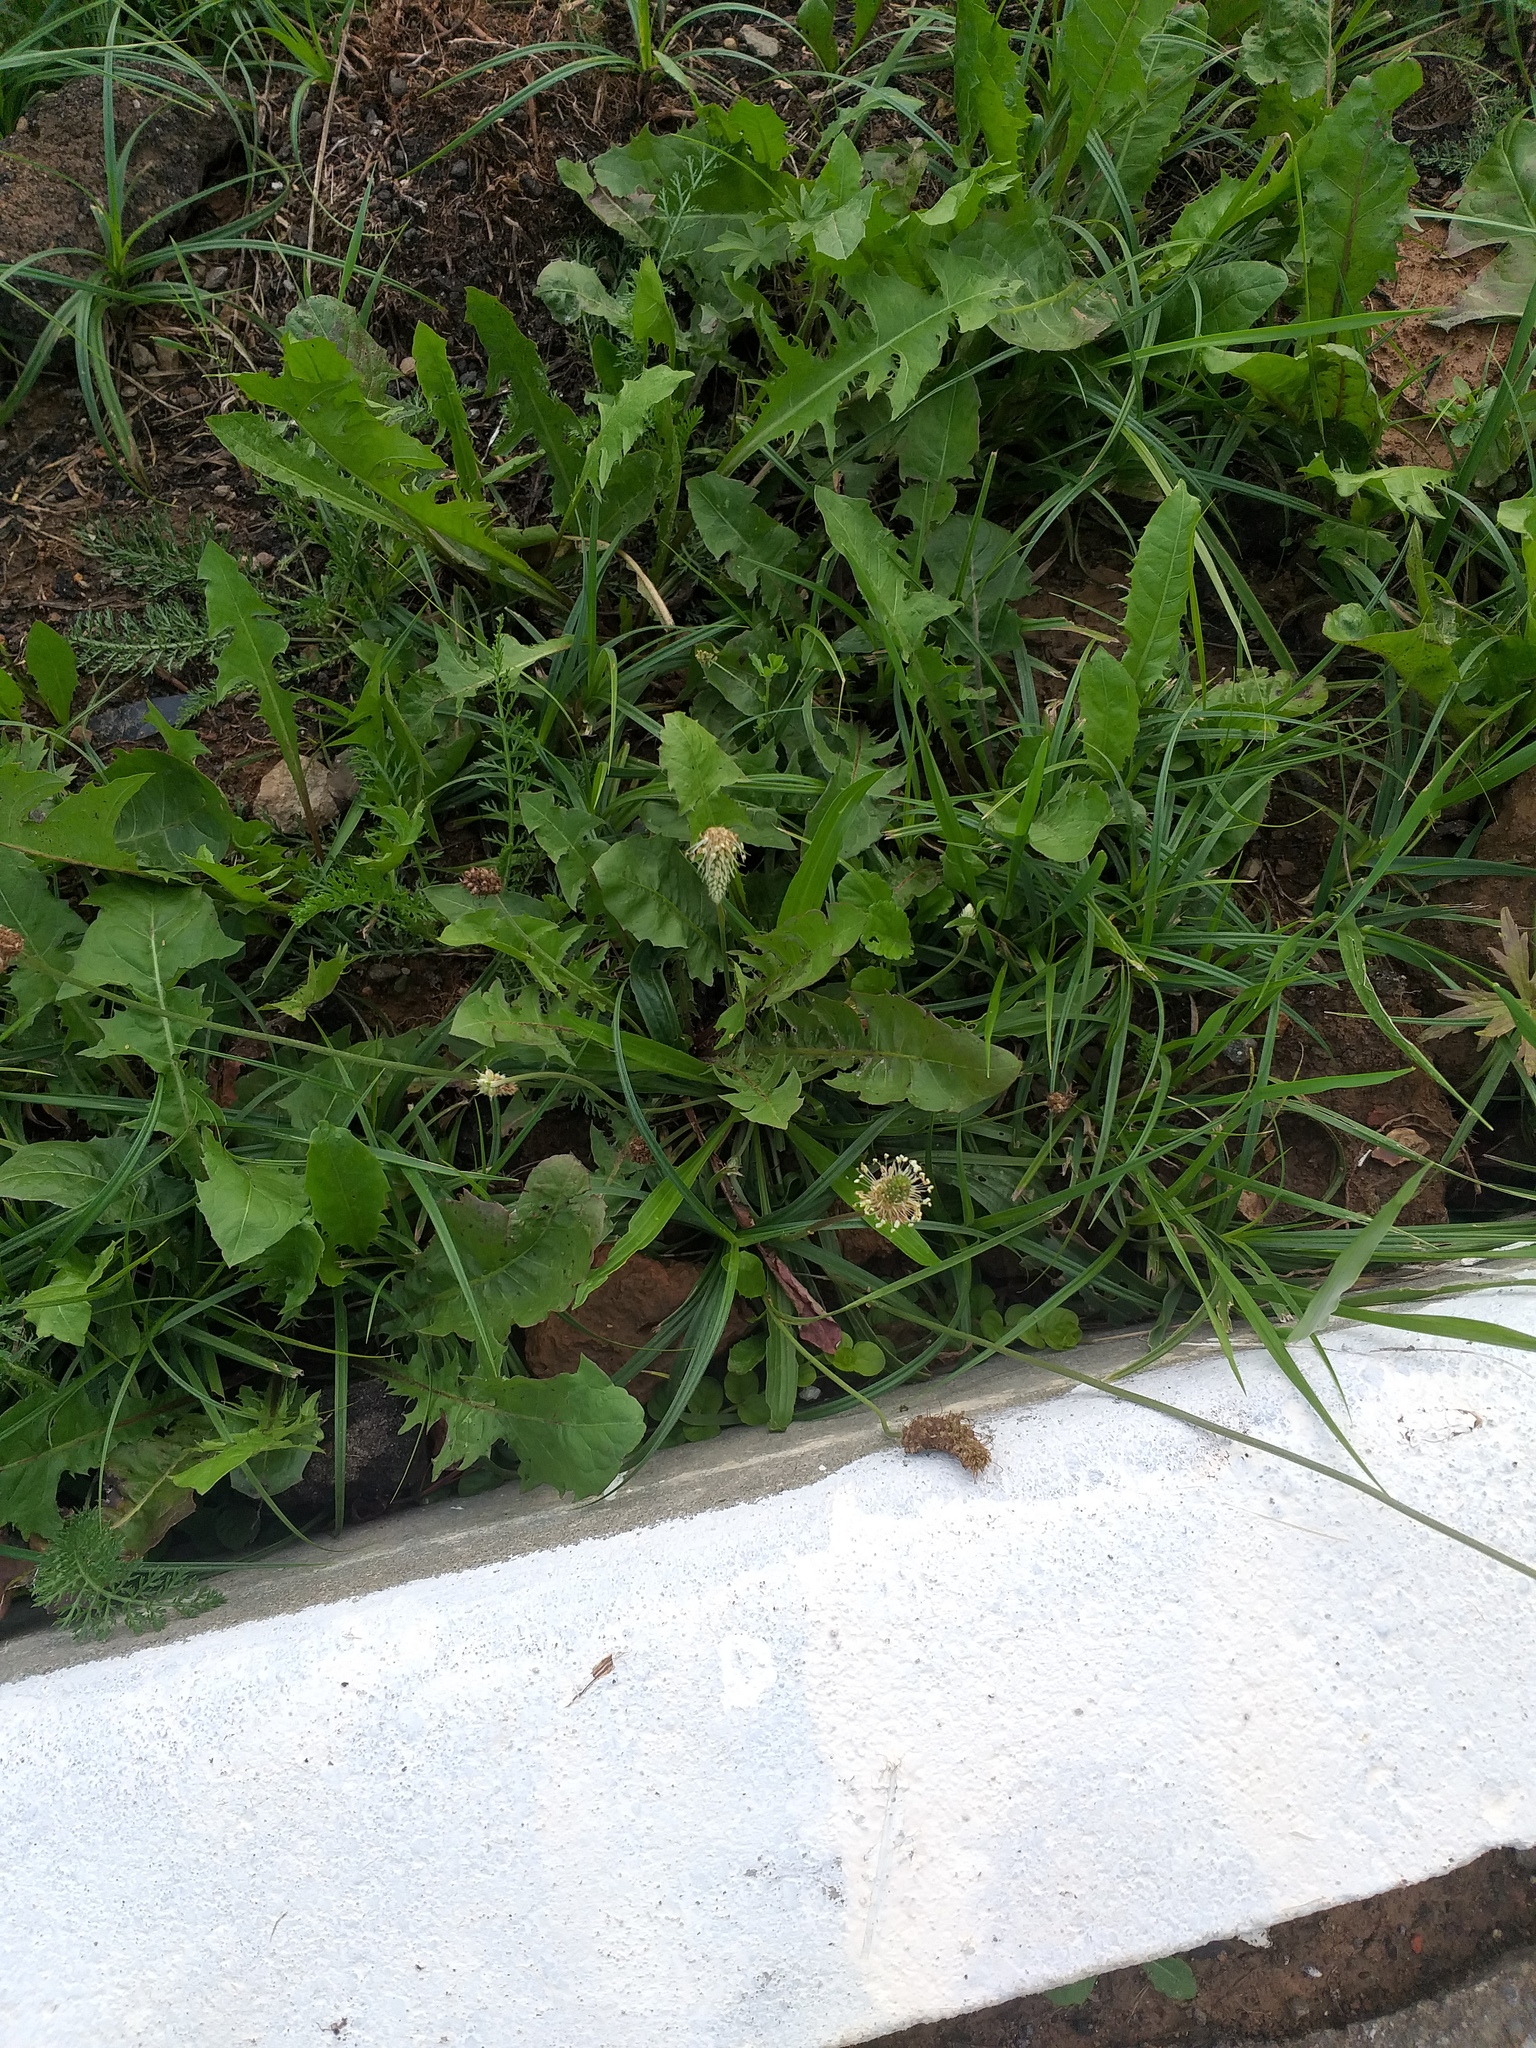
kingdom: Plantae
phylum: Tracheophyta
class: Magnoliopsida
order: Lamiales
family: Plantaginaceae
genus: Plantago
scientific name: Plantago lanceolata
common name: Ribwort plantain
